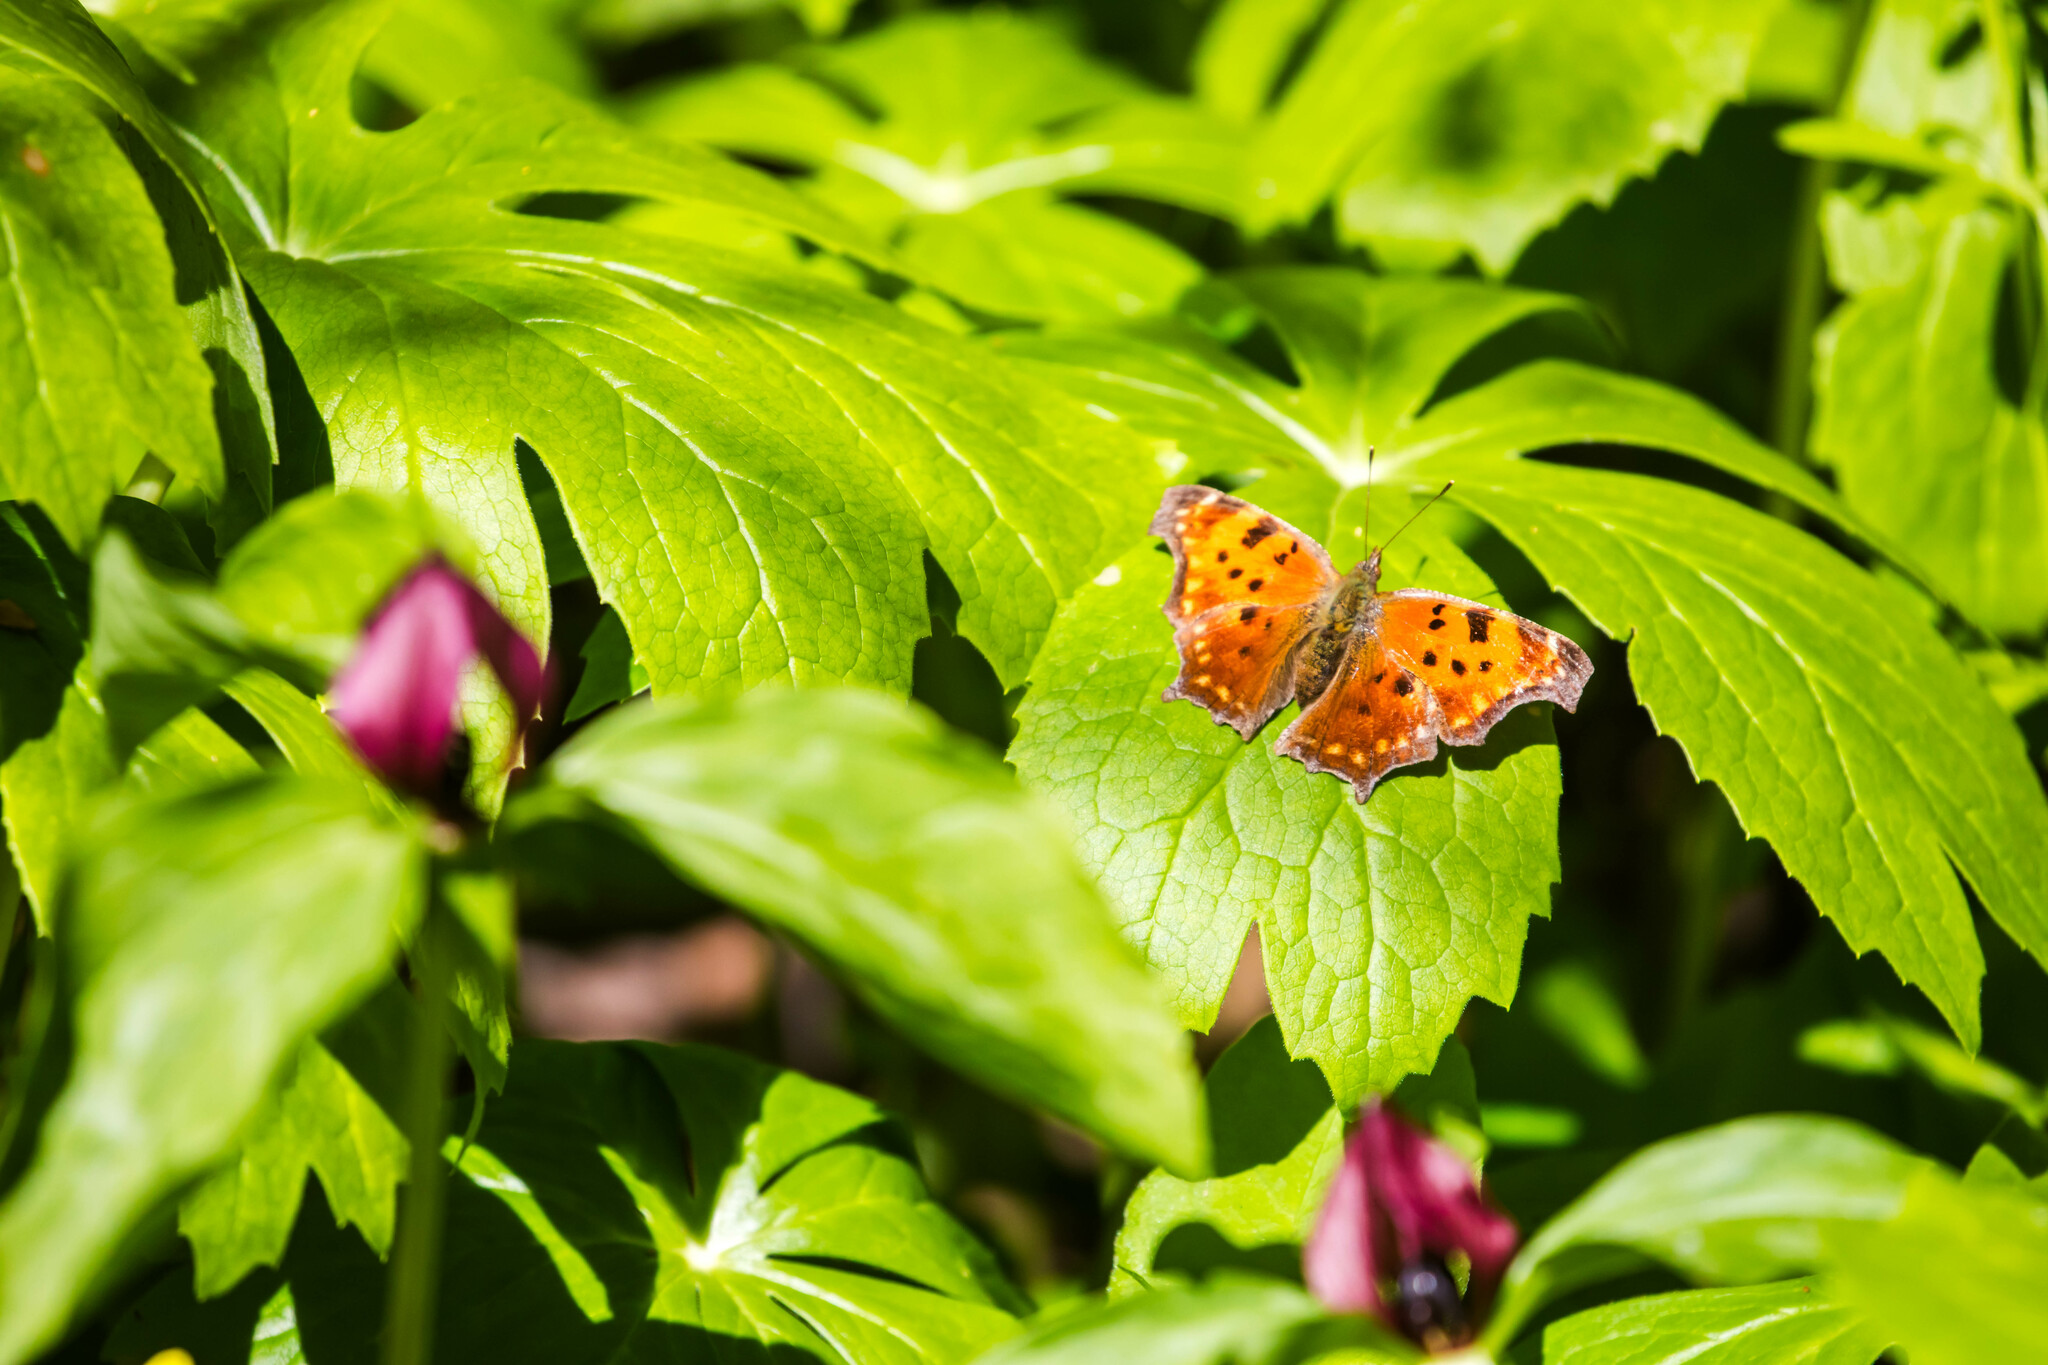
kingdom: Animalia
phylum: Arthropoda
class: Insecta
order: Lepidoptera
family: Nymphalidae
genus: Polygonia
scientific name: Polygonia comma
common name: Eastern comma
